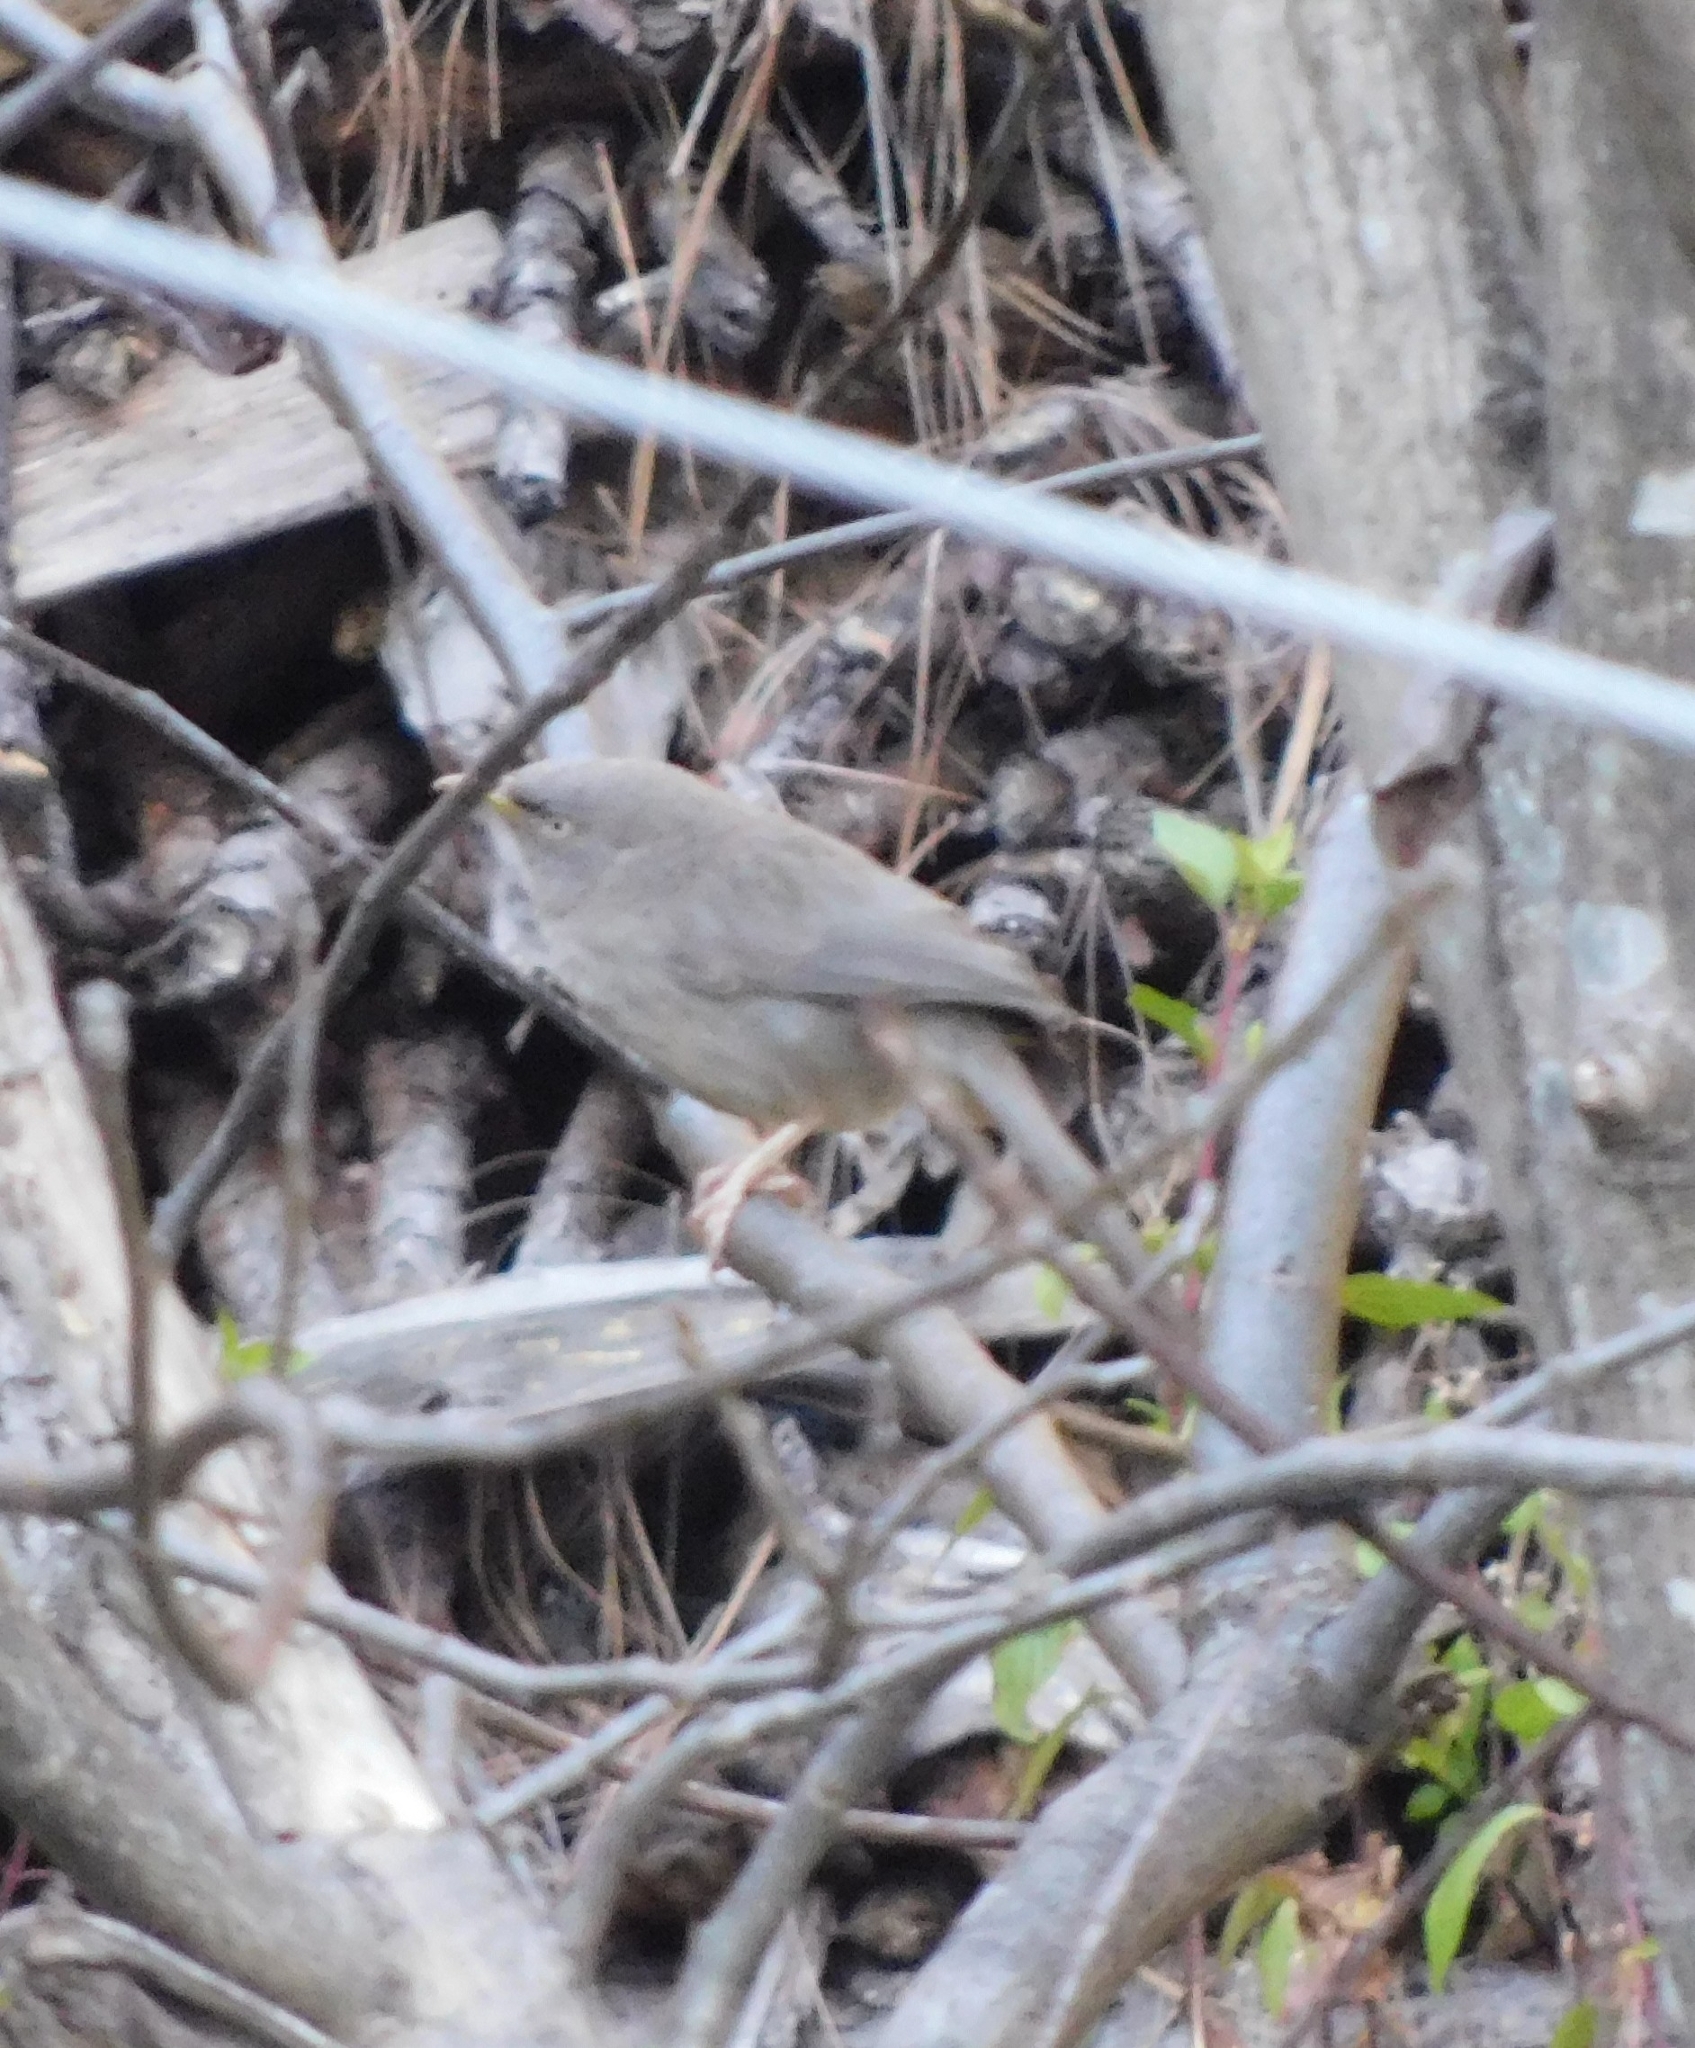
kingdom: Animalia
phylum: Chordata
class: Aves
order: Passeriformes
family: Leiothrichidae
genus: Turdoides
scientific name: Turdoides striata
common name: Jungle babbler
